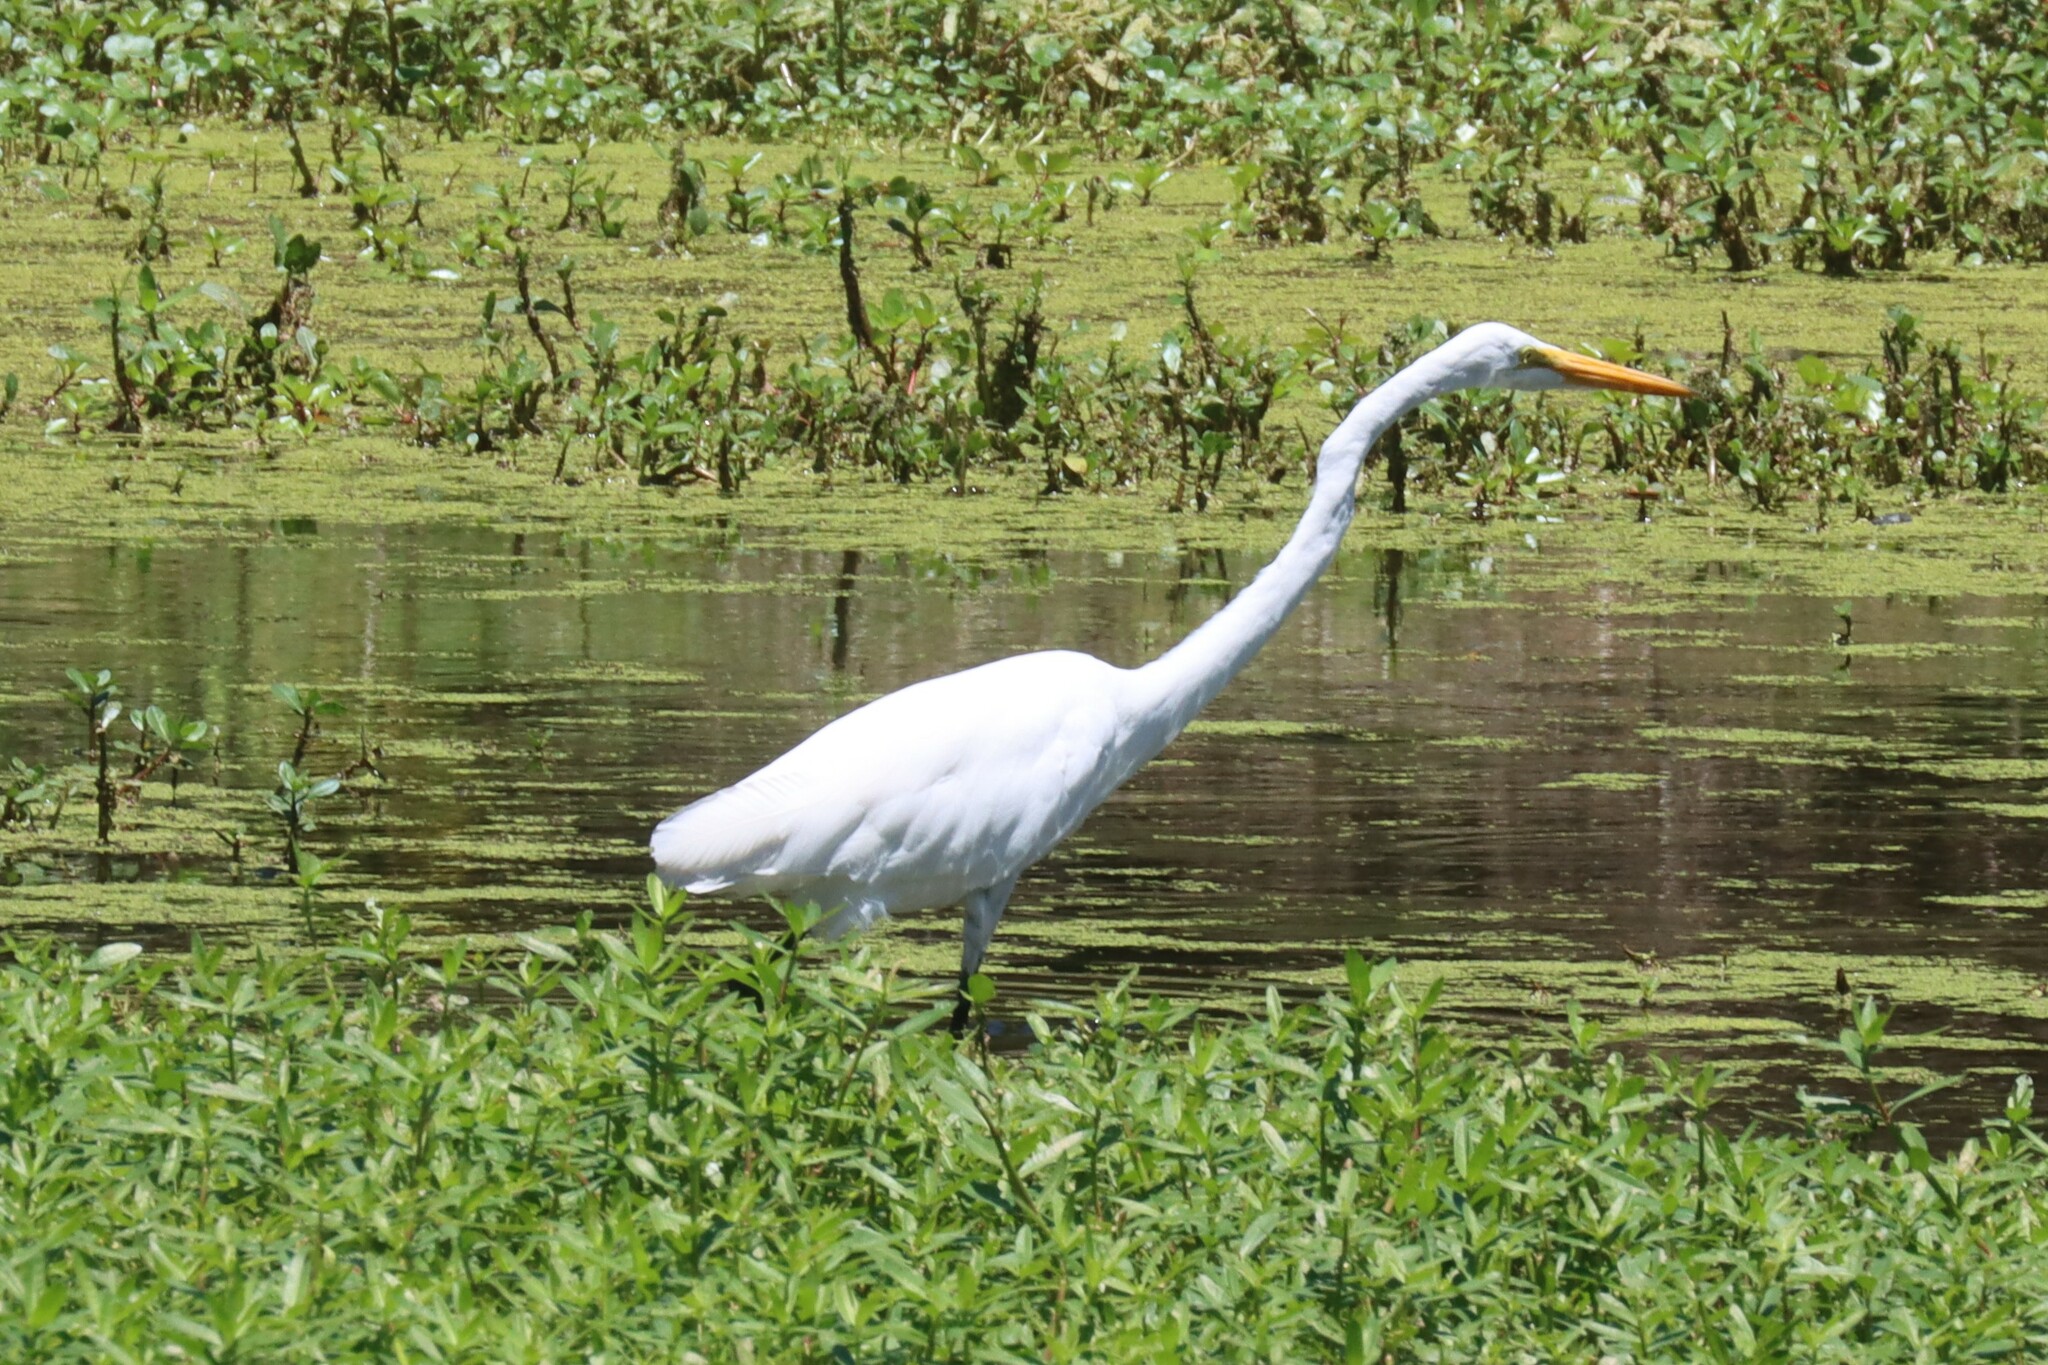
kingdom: Animalia
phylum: Chordata
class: Aves
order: Pelecaniformes
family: Ardeidae
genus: Ardea
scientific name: Ardea alba
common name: Great egret
